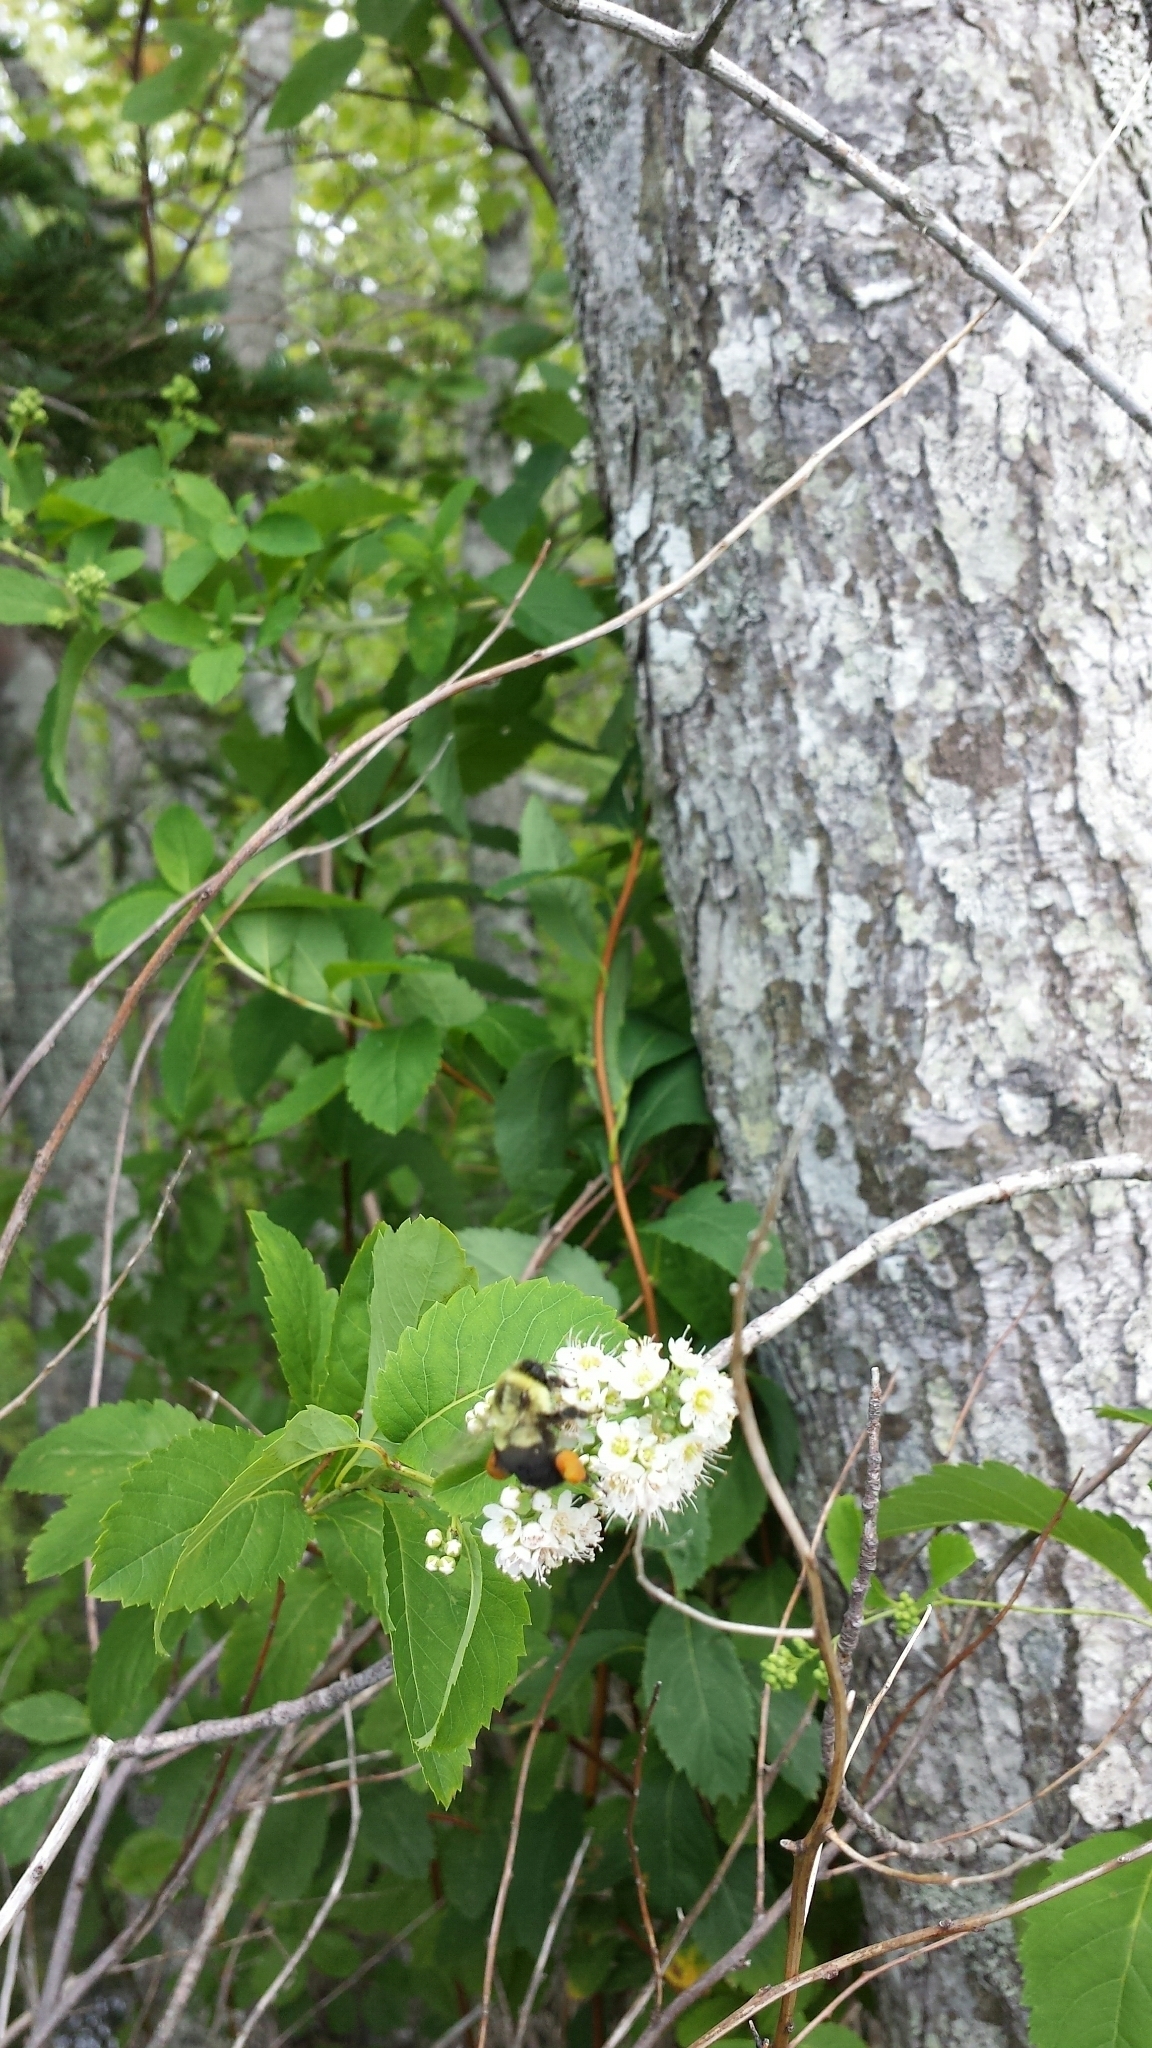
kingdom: Animalia
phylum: Arthropoda
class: Insecta
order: Hymenoptera
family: Apidae
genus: Bombus
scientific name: Bombus impatiens
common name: Common eastern bumble bee
